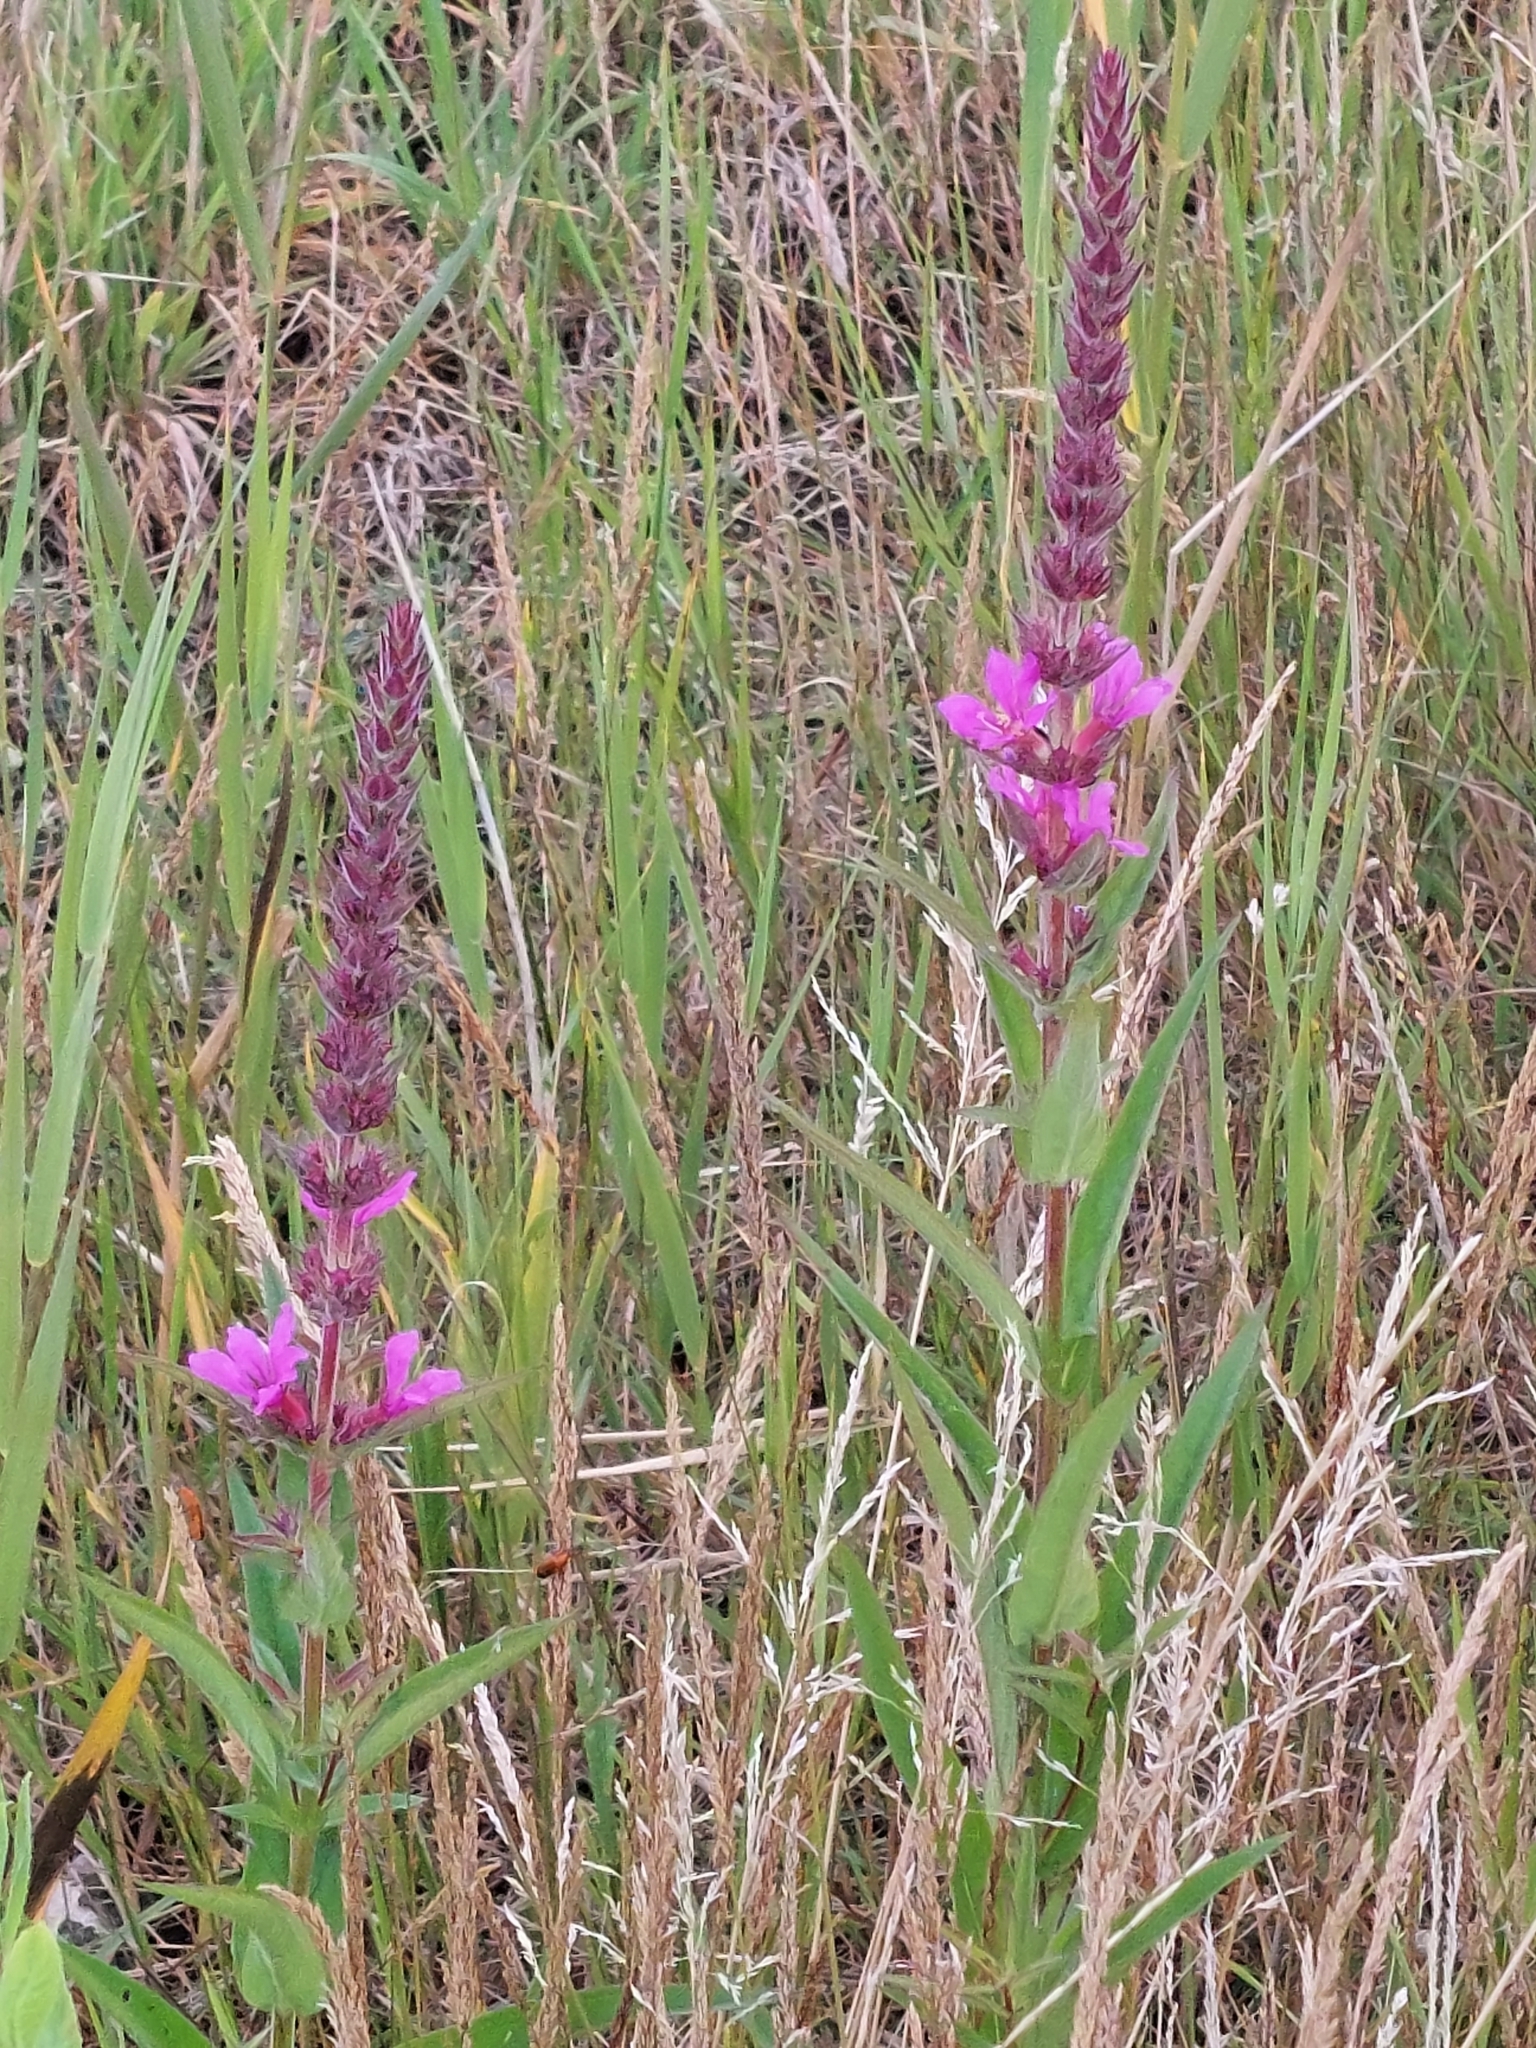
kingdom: Plantae
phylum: Tracheophyta
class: Magnoliopsida
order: Myrtales
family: Lythraceae
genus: Lythrum
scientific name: Lythrum salicaria
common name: Purple loosestrife
